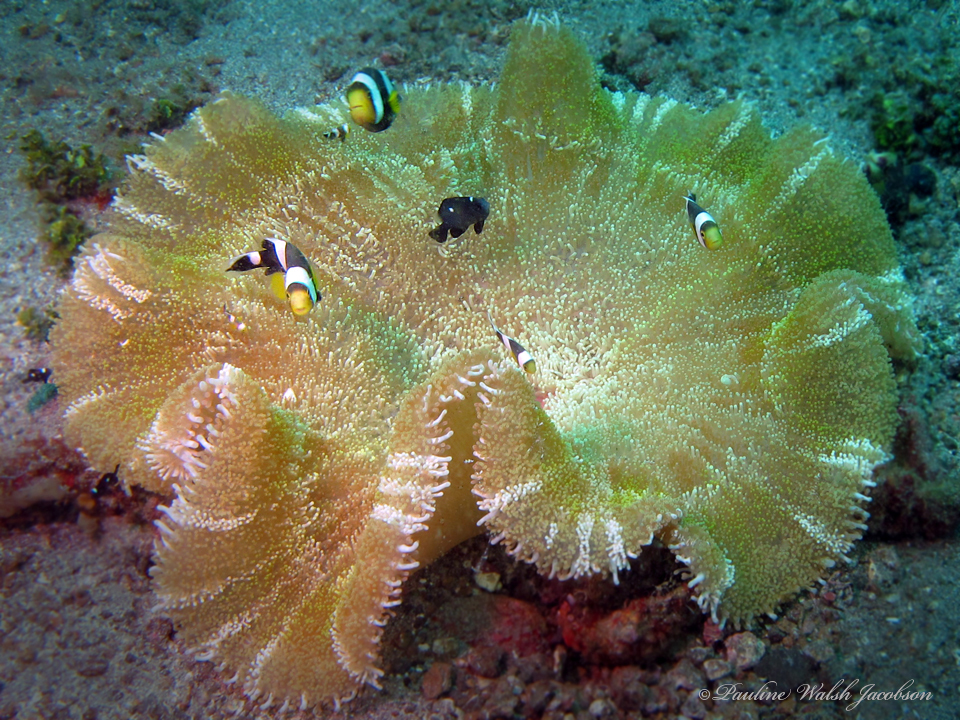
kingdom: Animalia
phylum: Chordata
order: Perciformes
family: Pomacentridae
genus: Amphiprion
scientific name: Amphiprion polymnus
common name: Saddleback anemonefish
